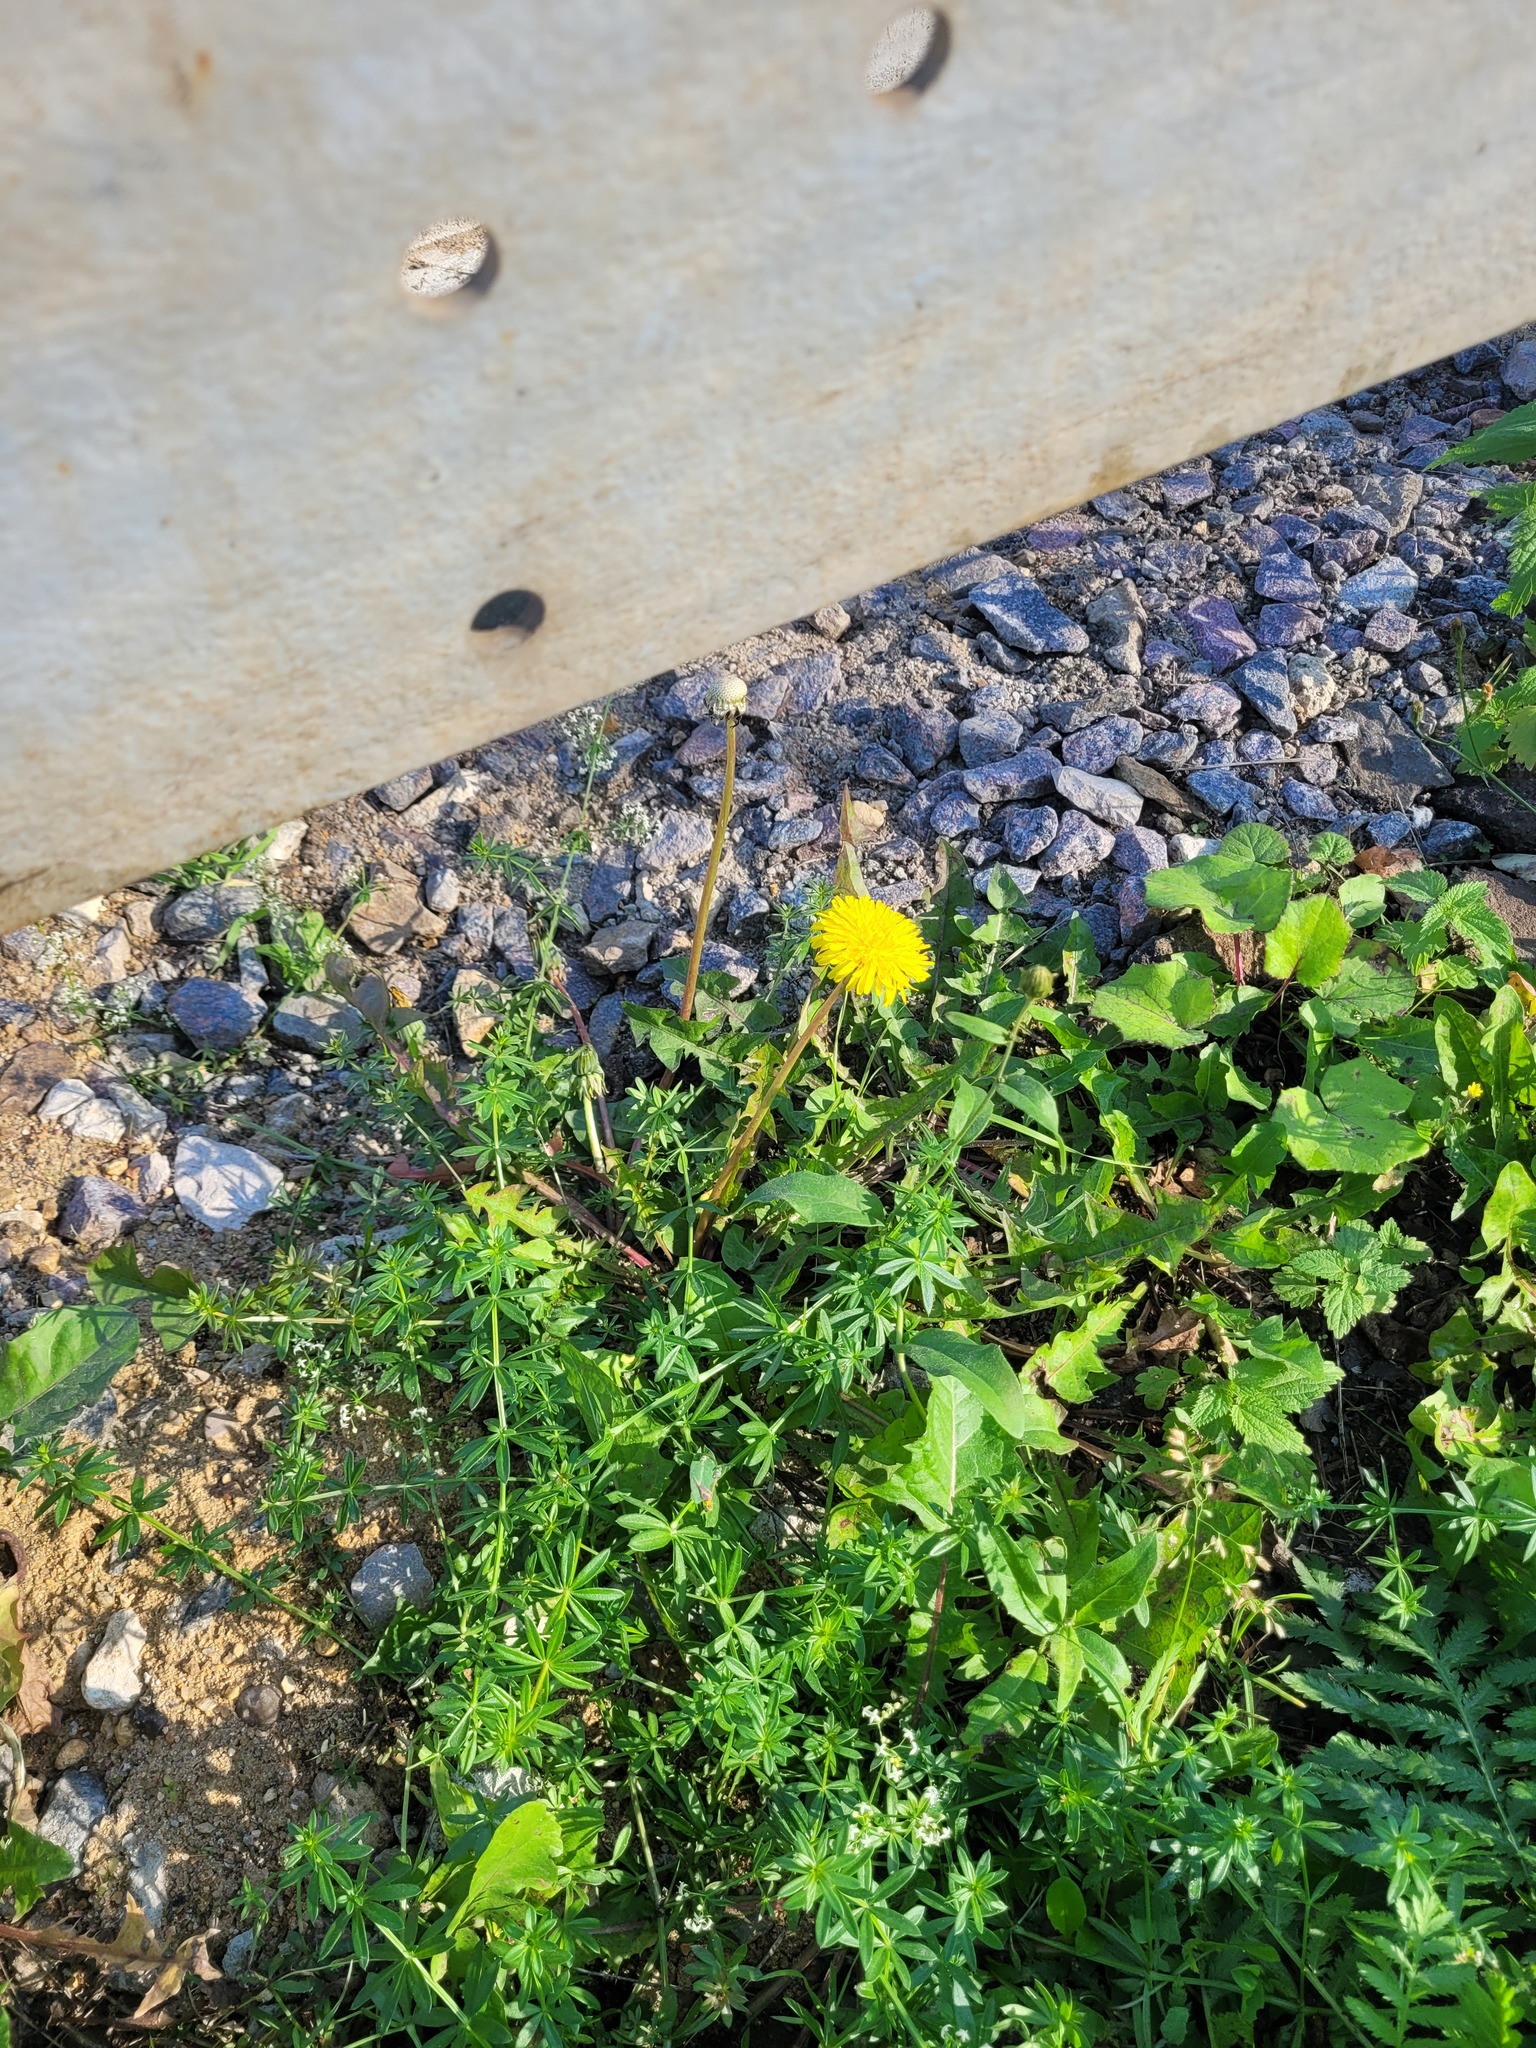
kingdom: Plantae
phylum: Tracheophyta
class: Magnoliopsida
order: Asterales
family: Asteraceae
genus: Taraxacum
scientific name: Taraxacum officinale
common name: Common dandelion
